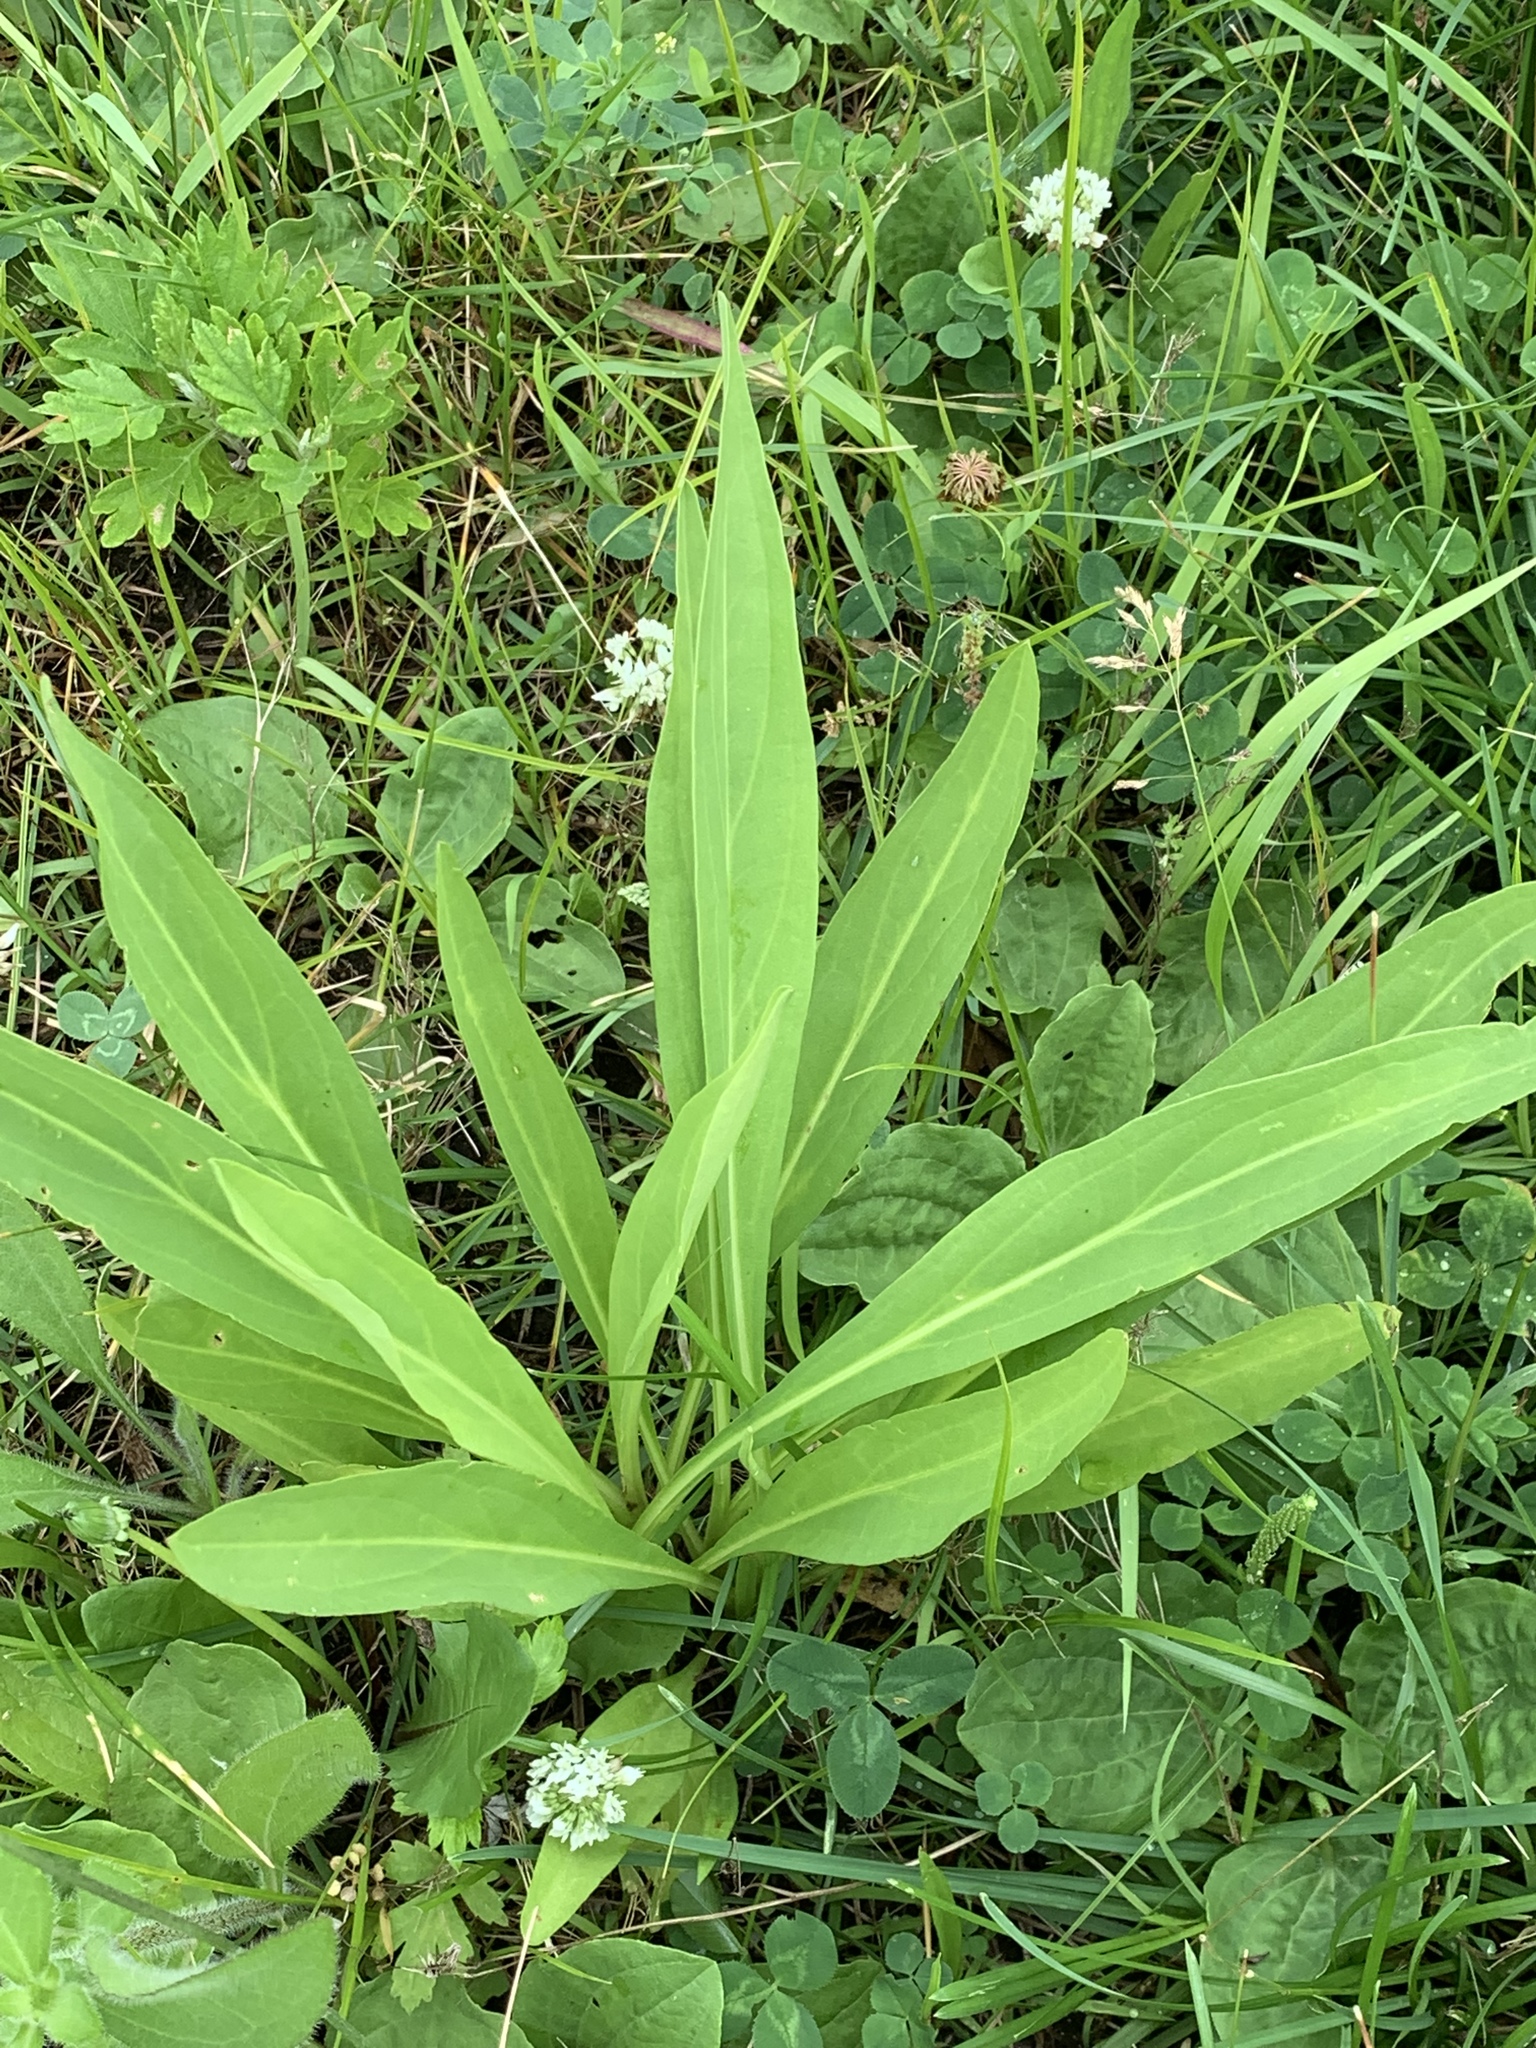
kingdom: Plantae
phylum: Tracheophyta
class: Magnoliopsida
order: Asterales
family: Asteraceae
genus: Solidago
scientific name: Solidago sempervirens
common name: Salt-marsh goldenrod
